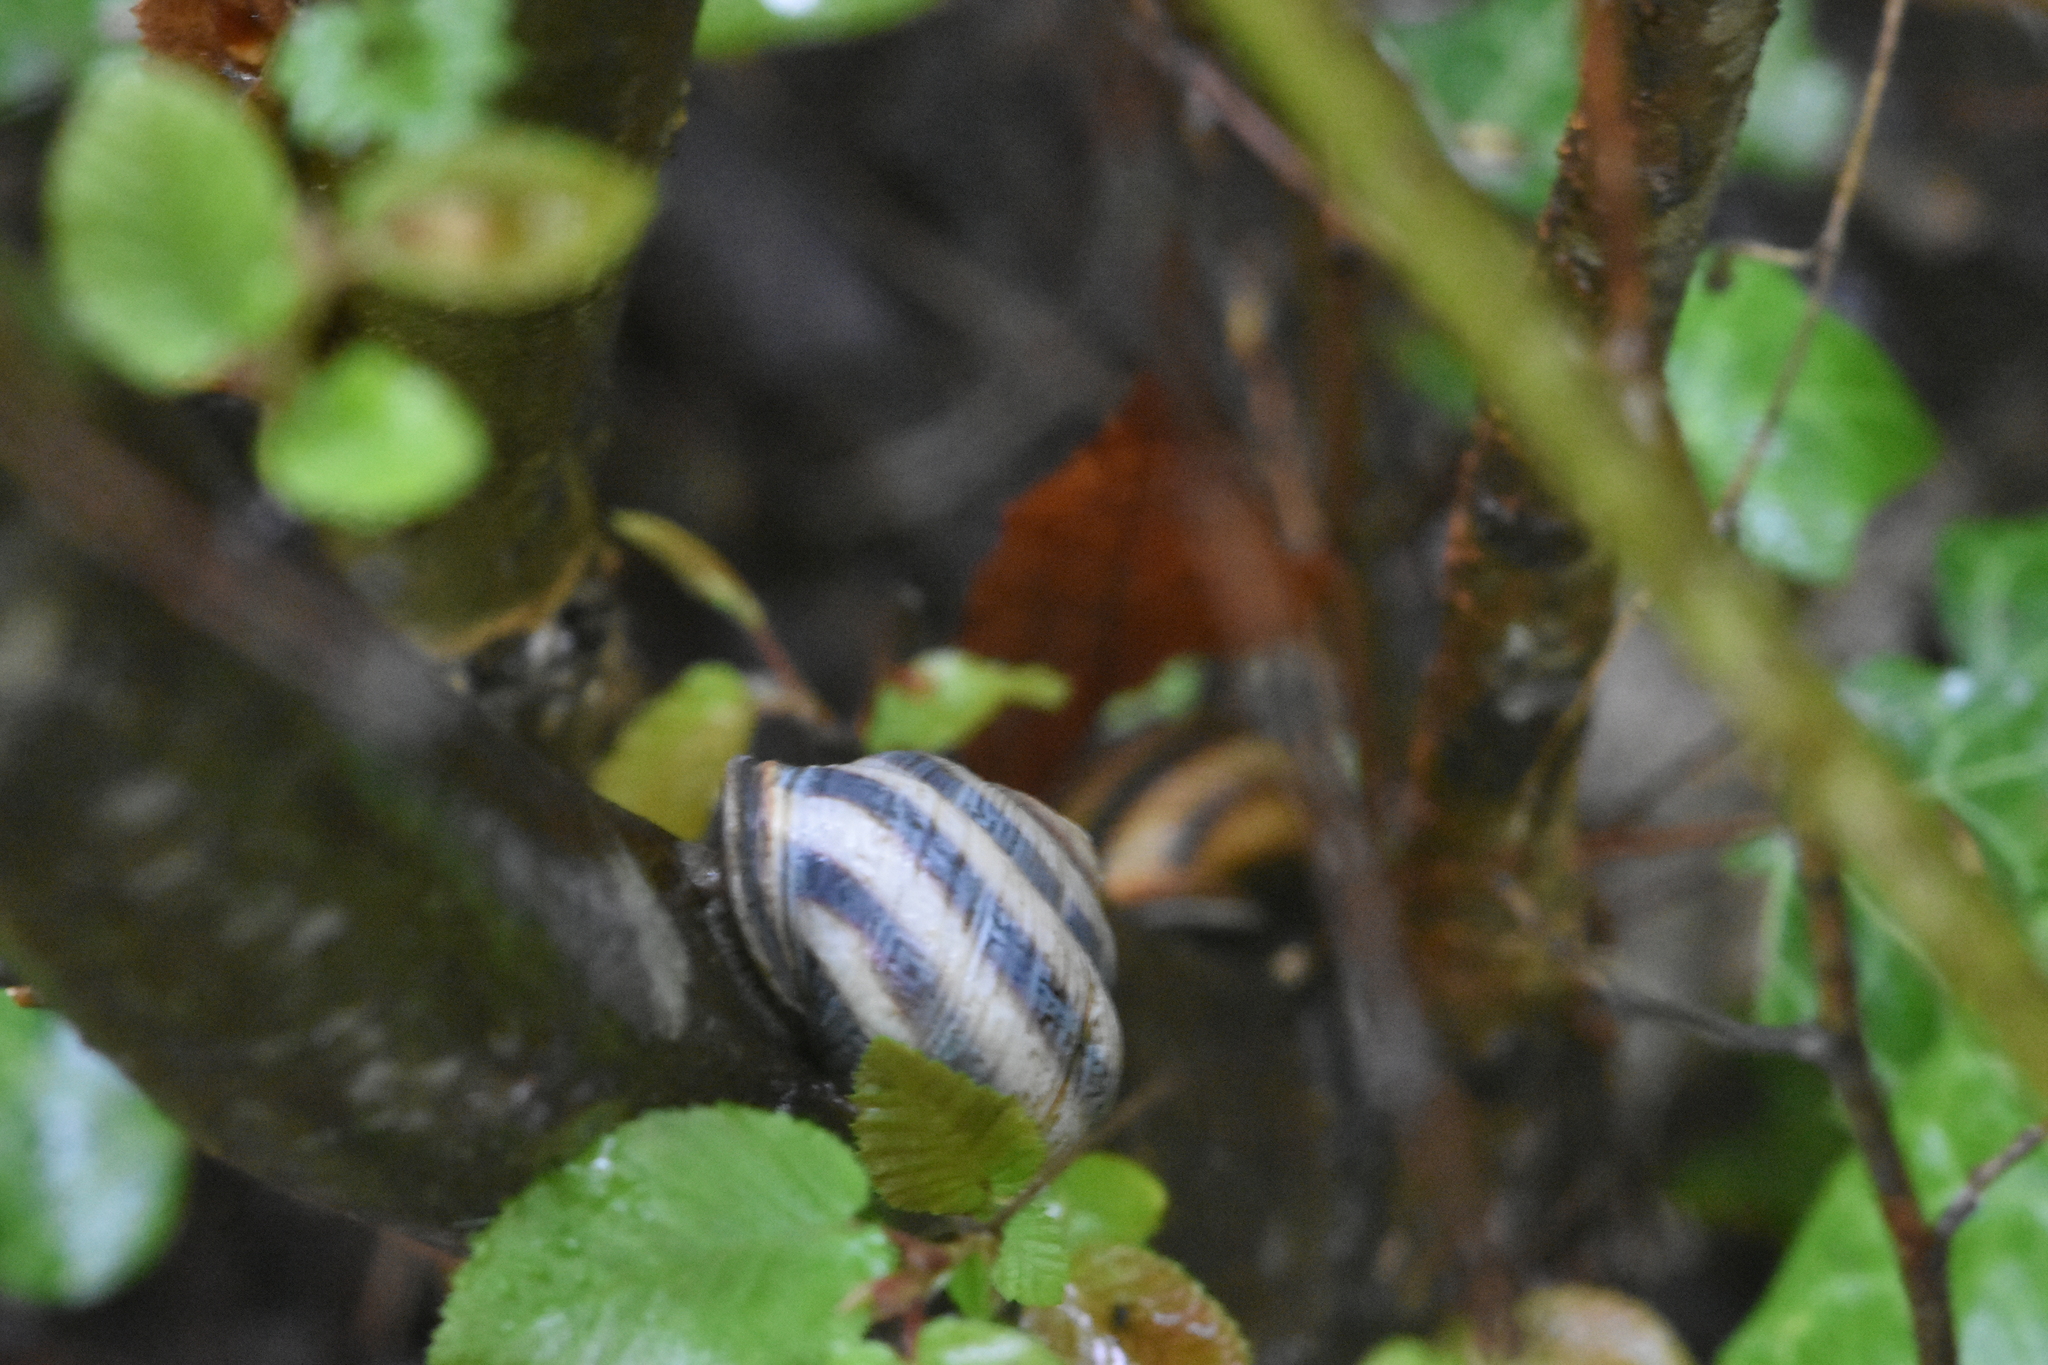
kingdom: Animalia
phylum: Mollusca
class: Gastropoda
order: Stylommatophora
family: Helicidae
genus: Caucasotachea
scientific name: Caucasotachea atrolabiata
